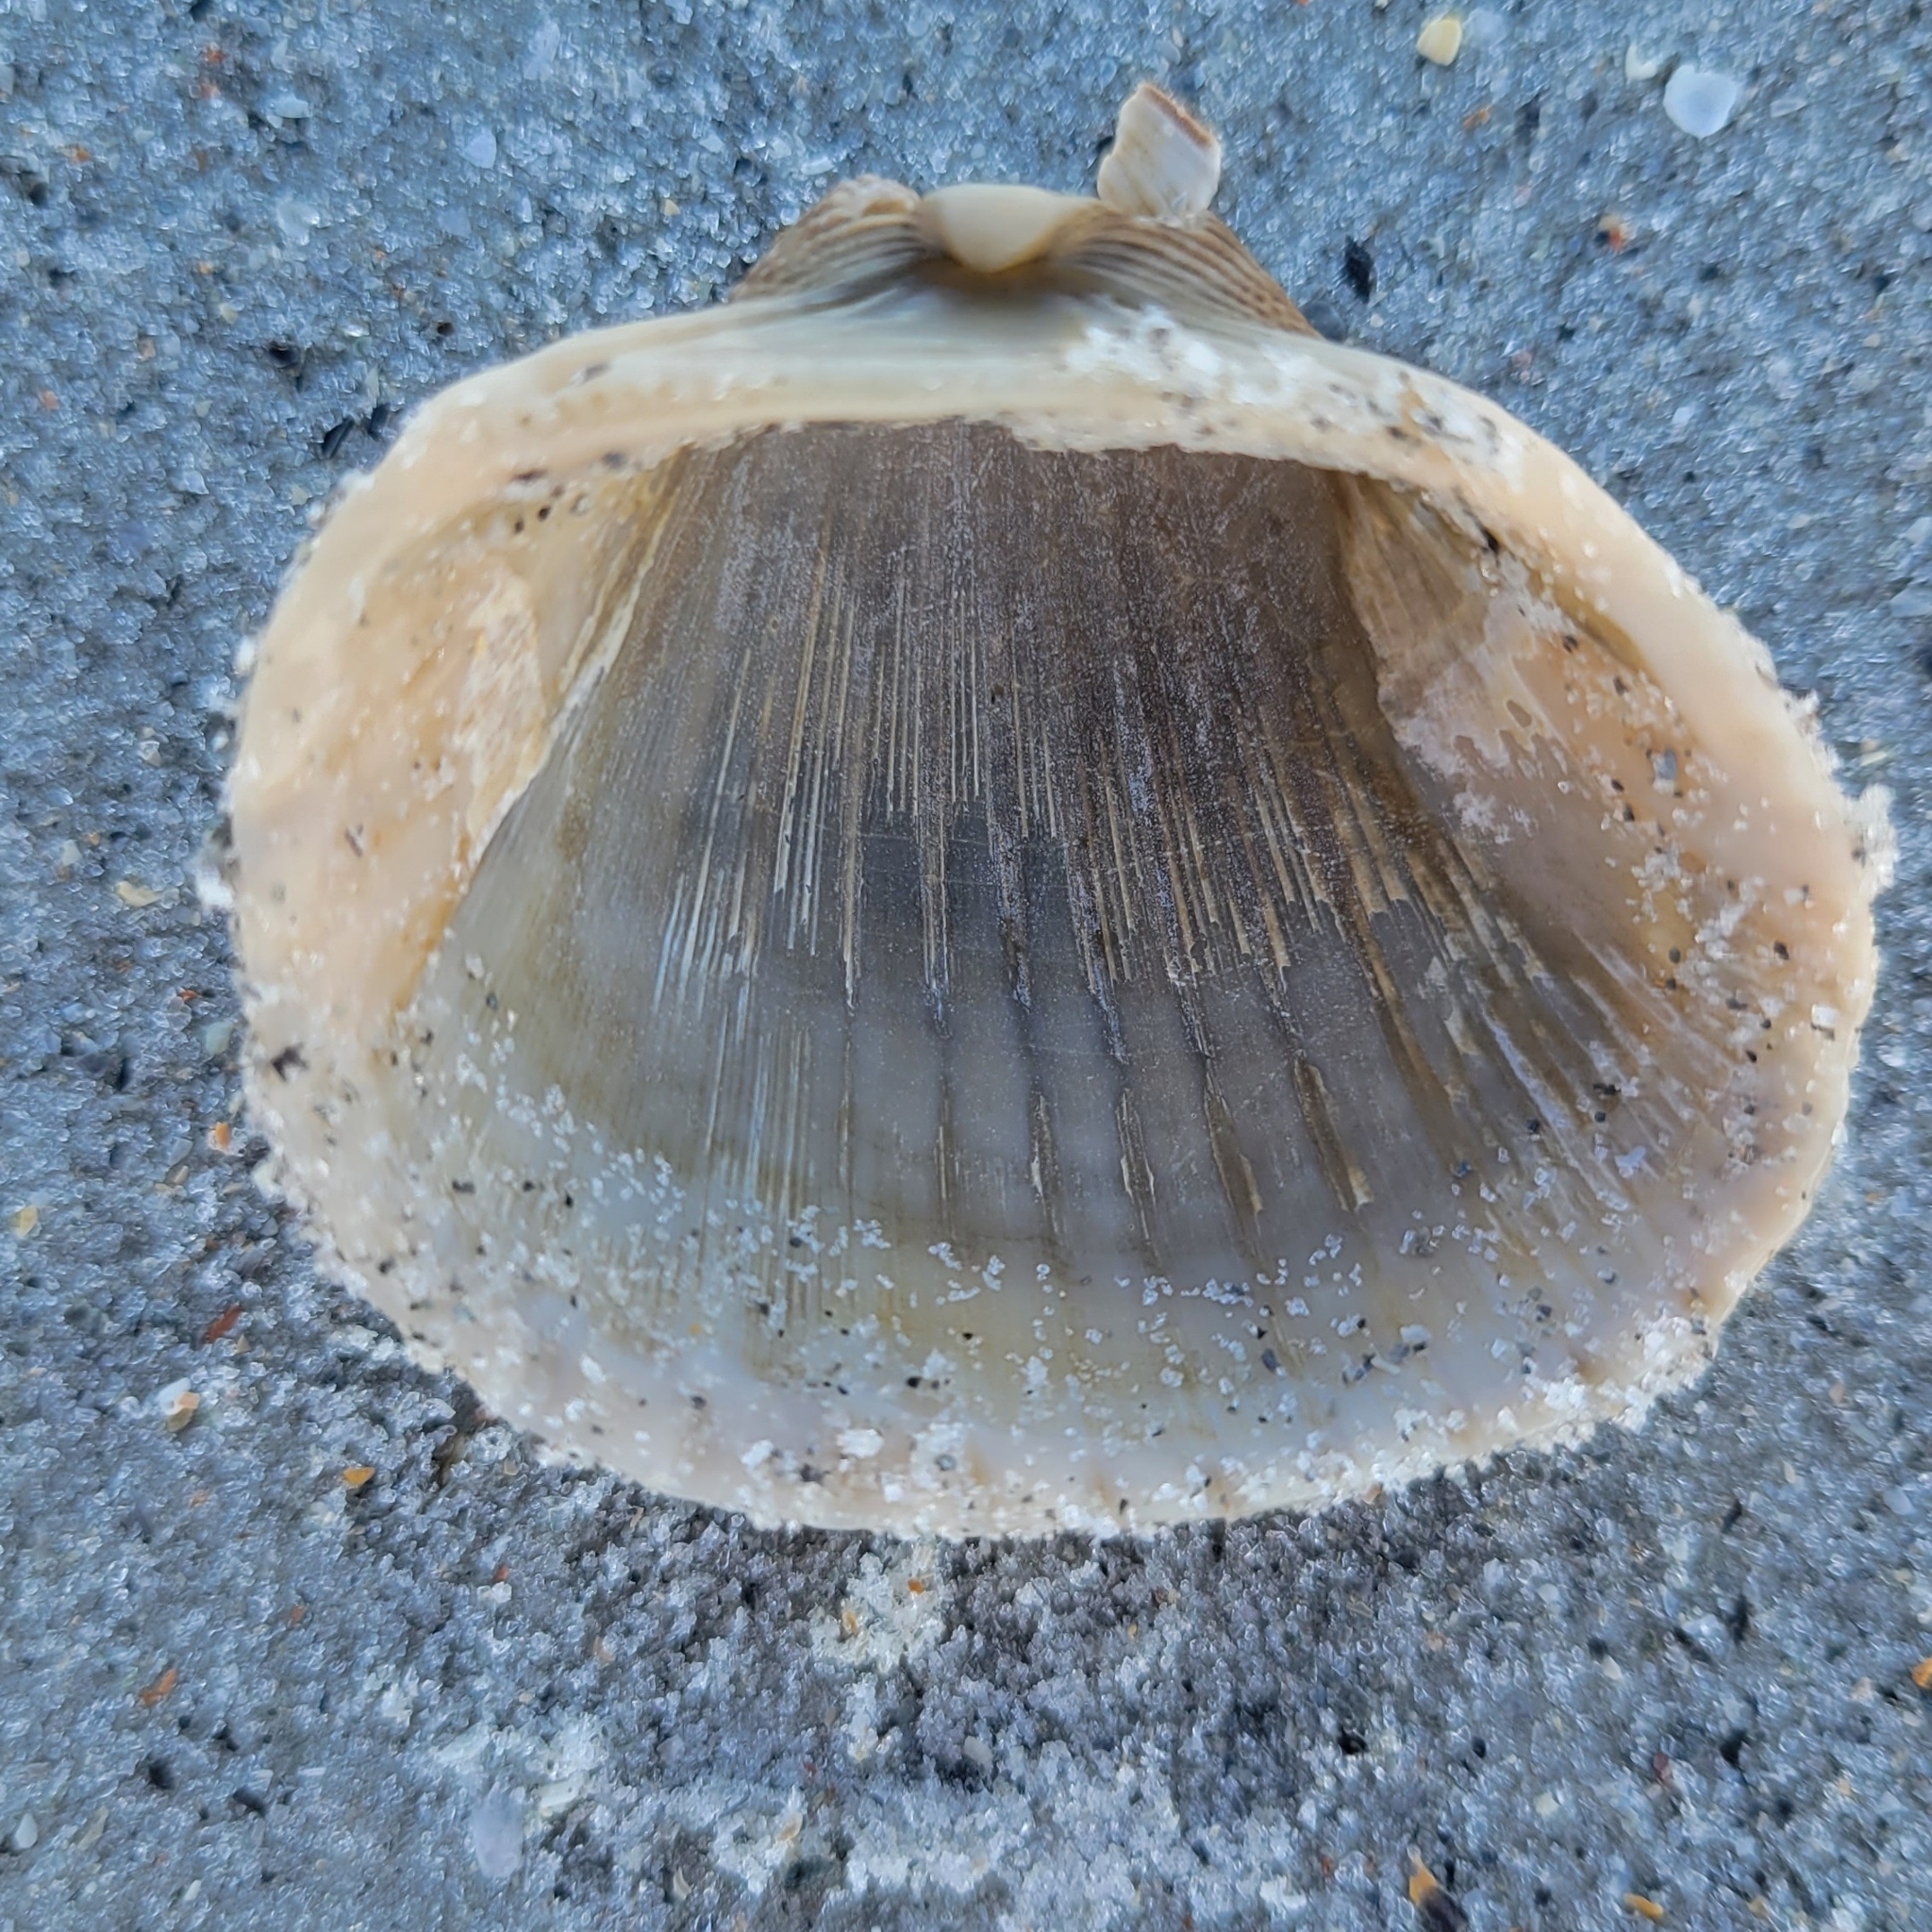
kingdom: Animalia
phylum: Mollusca
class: Bivalvia
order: Arcida
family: Arcidae
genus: Anadara
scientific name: Anadara brasiliana
